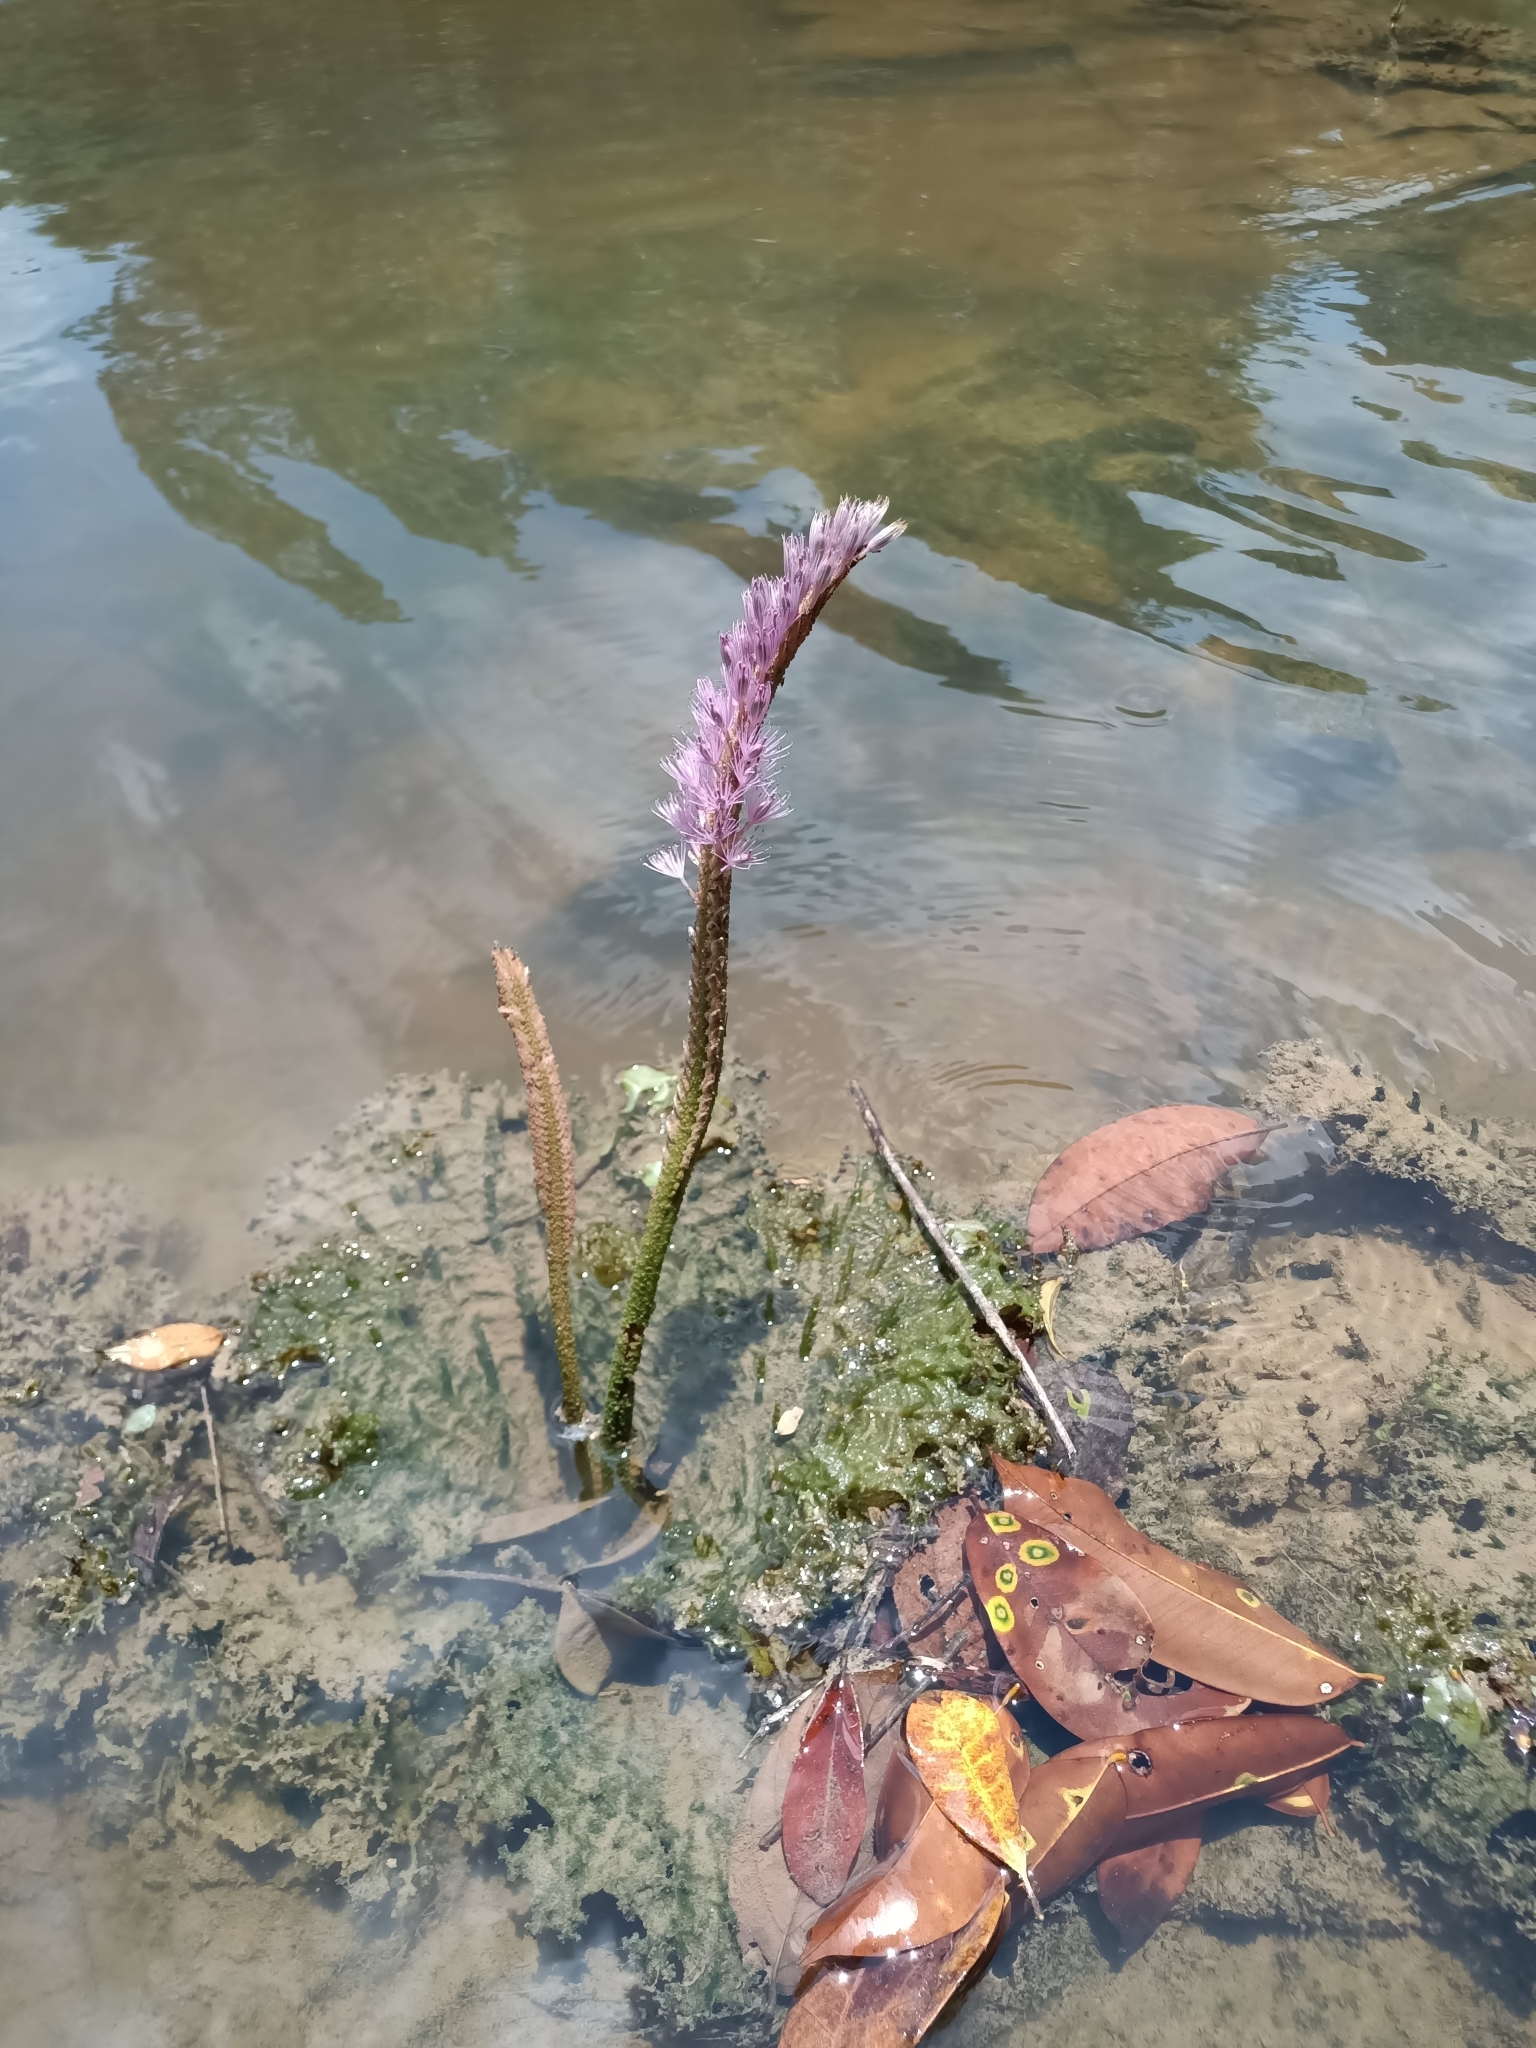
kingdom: Plantae
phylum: Tracheophyta
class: Magnoliopsida
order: Malpighiales
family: Podostemaceae
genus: Mourera
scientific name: Mourera fluviatilis
